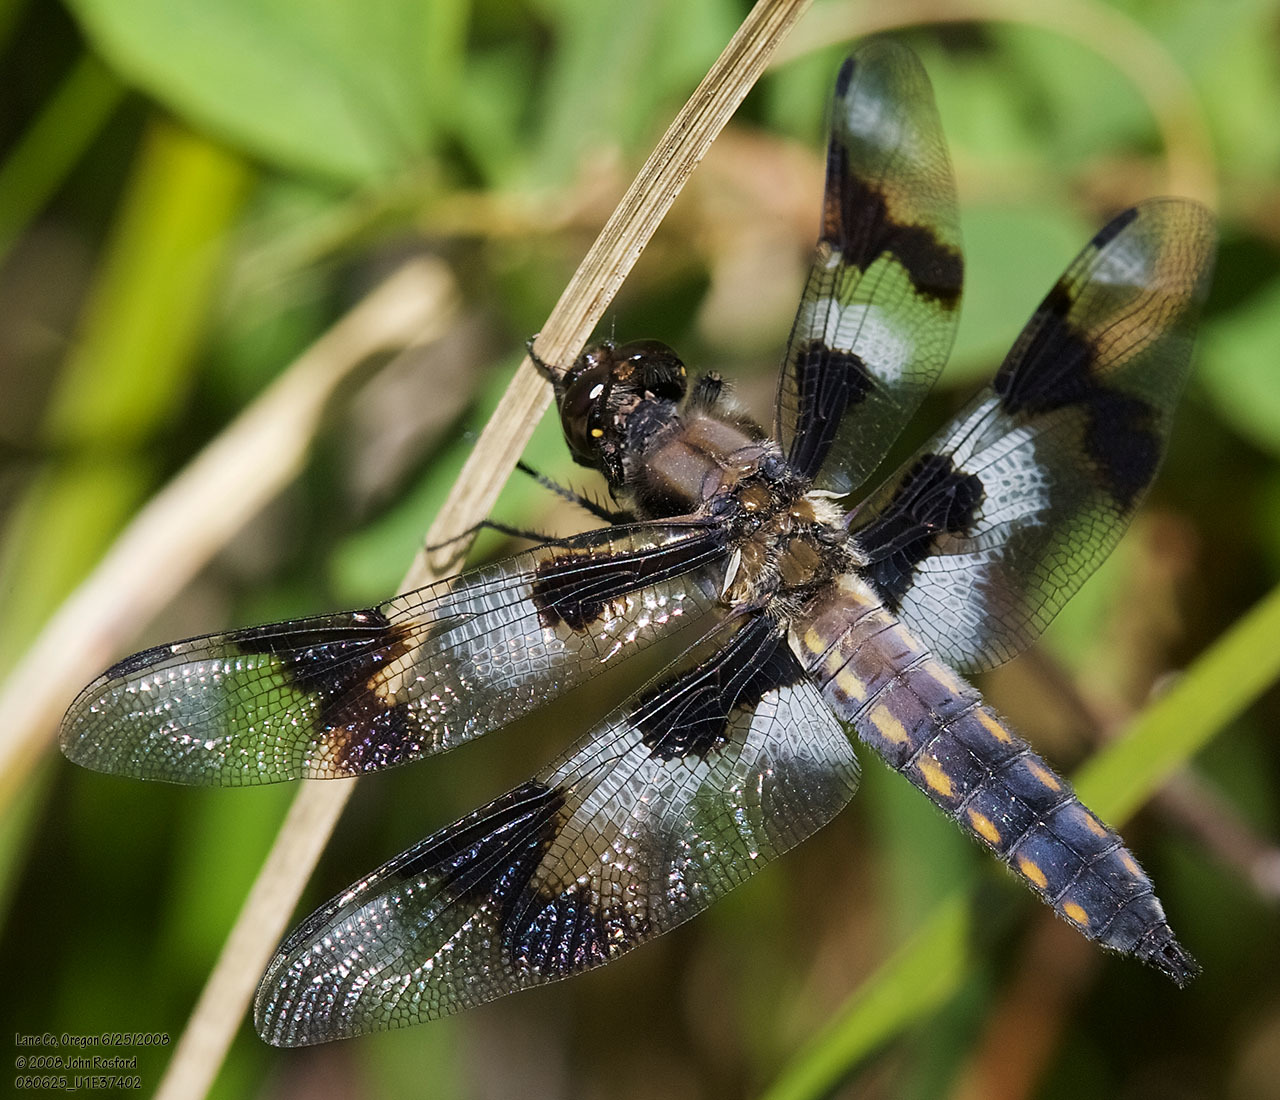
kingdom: Animalia
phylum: Arthropoda
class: Insecta
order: Odonata
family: Libellulidae
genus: Libellula
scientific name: Libellula forensis
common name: Eight-spotted skimmer
